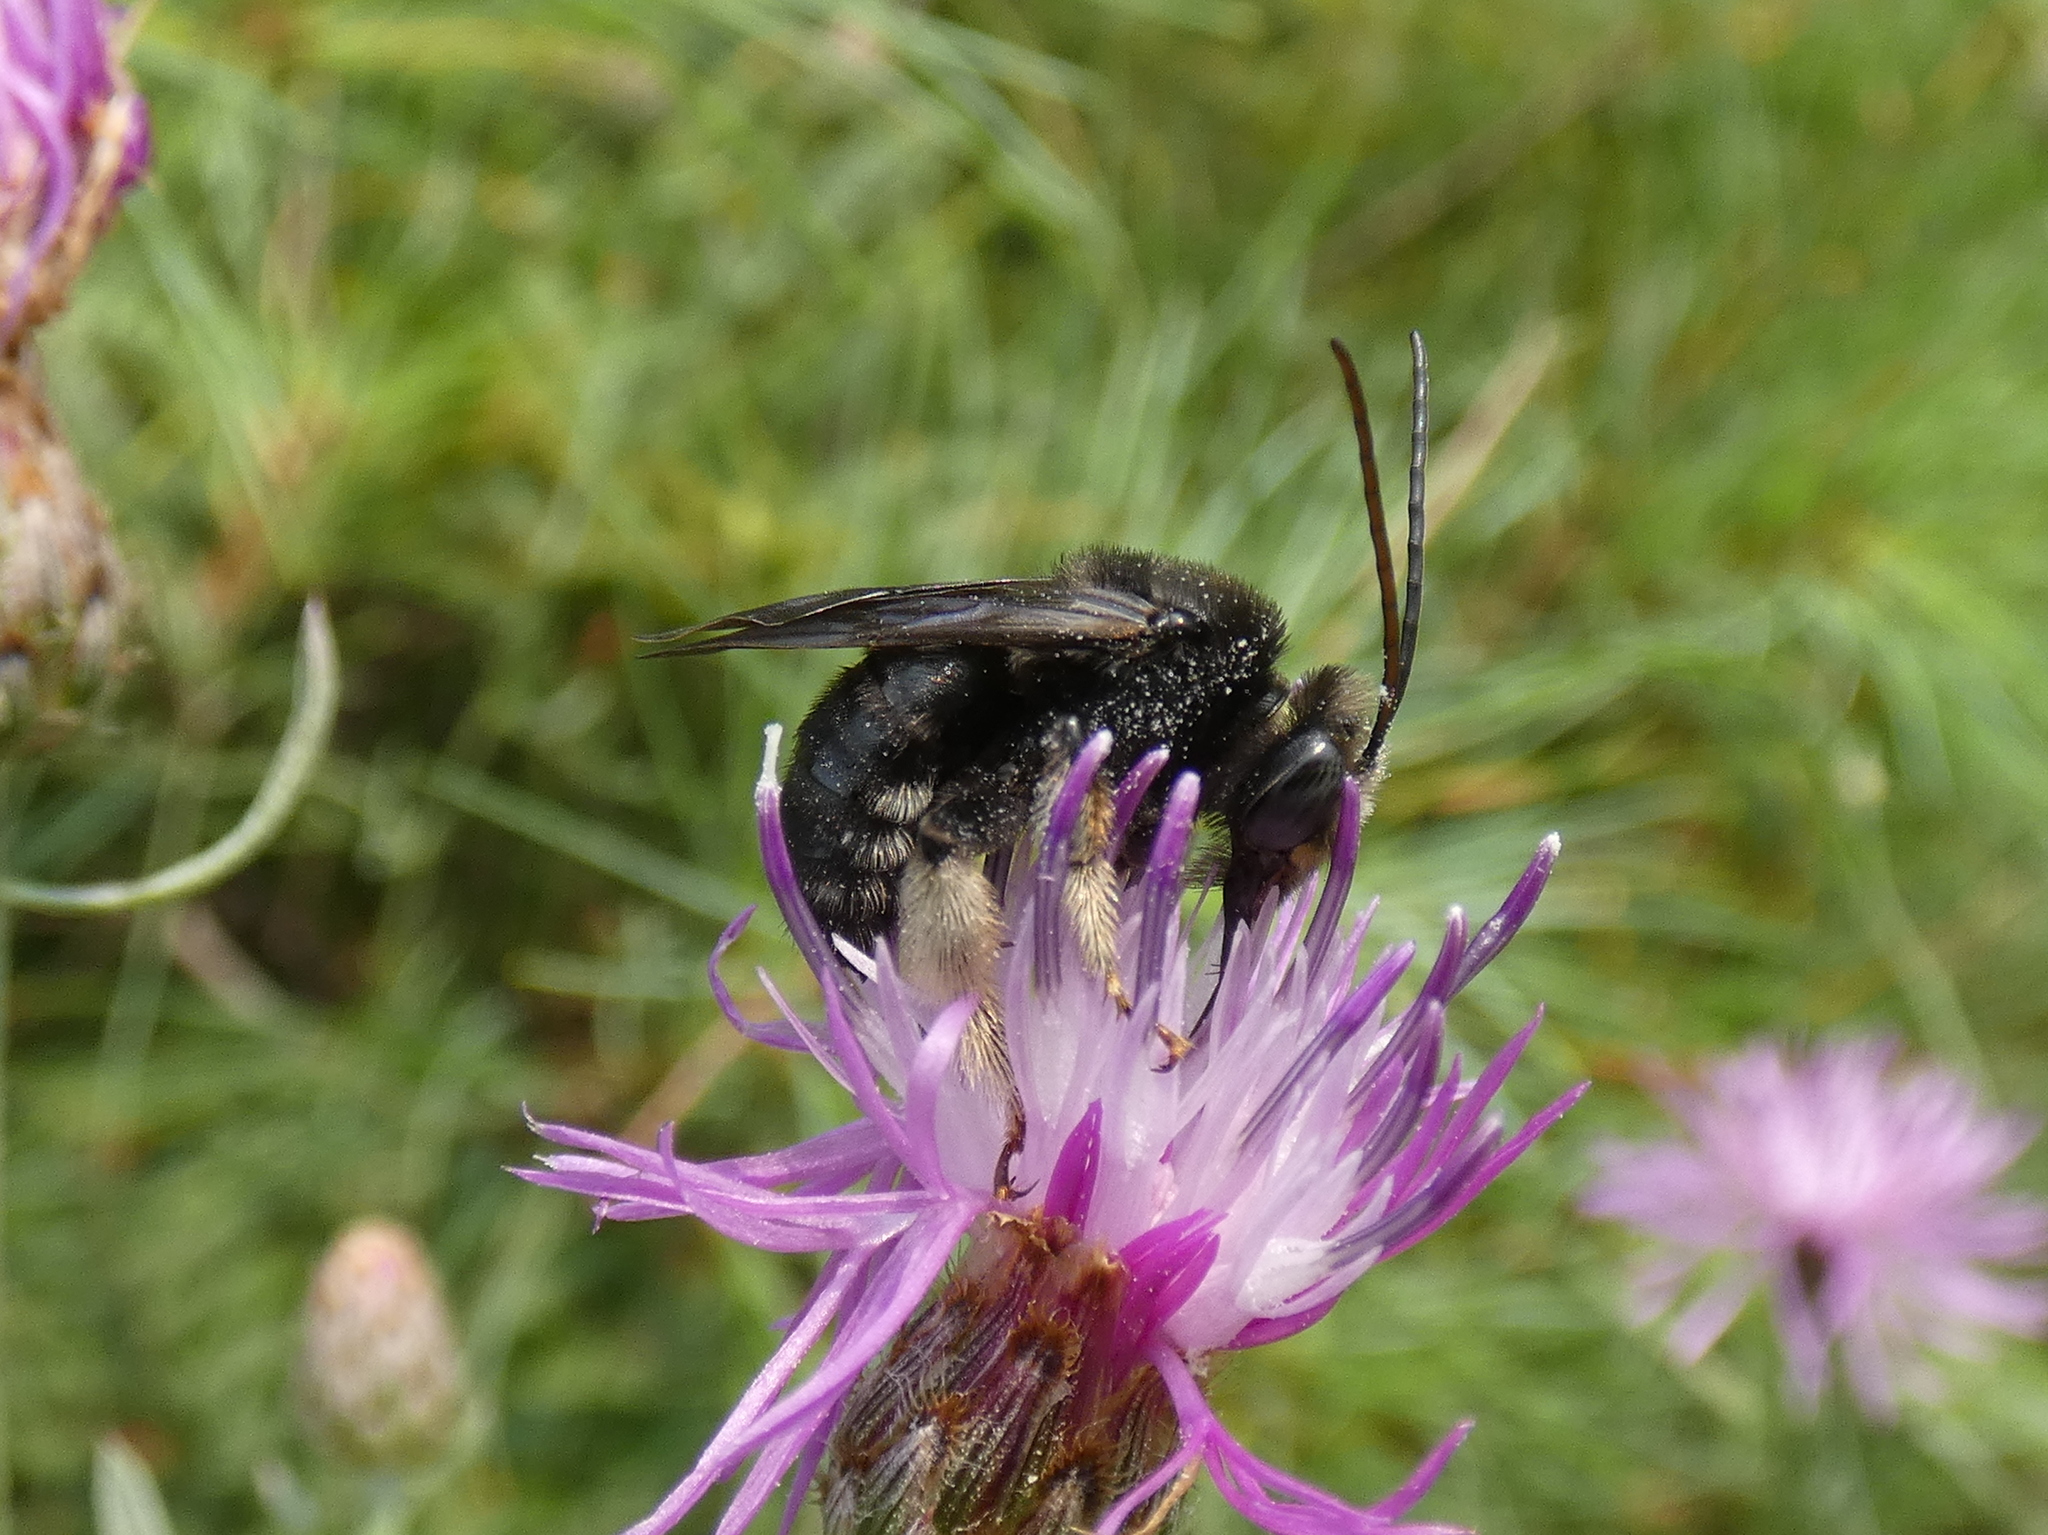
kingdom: Animalia
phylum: Arthropoda
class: Insecta
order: Hymenoptera
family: Apidae
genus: Melissodes
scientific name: Melissodes bimaculatus
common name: Two-spotted long-horned bee
